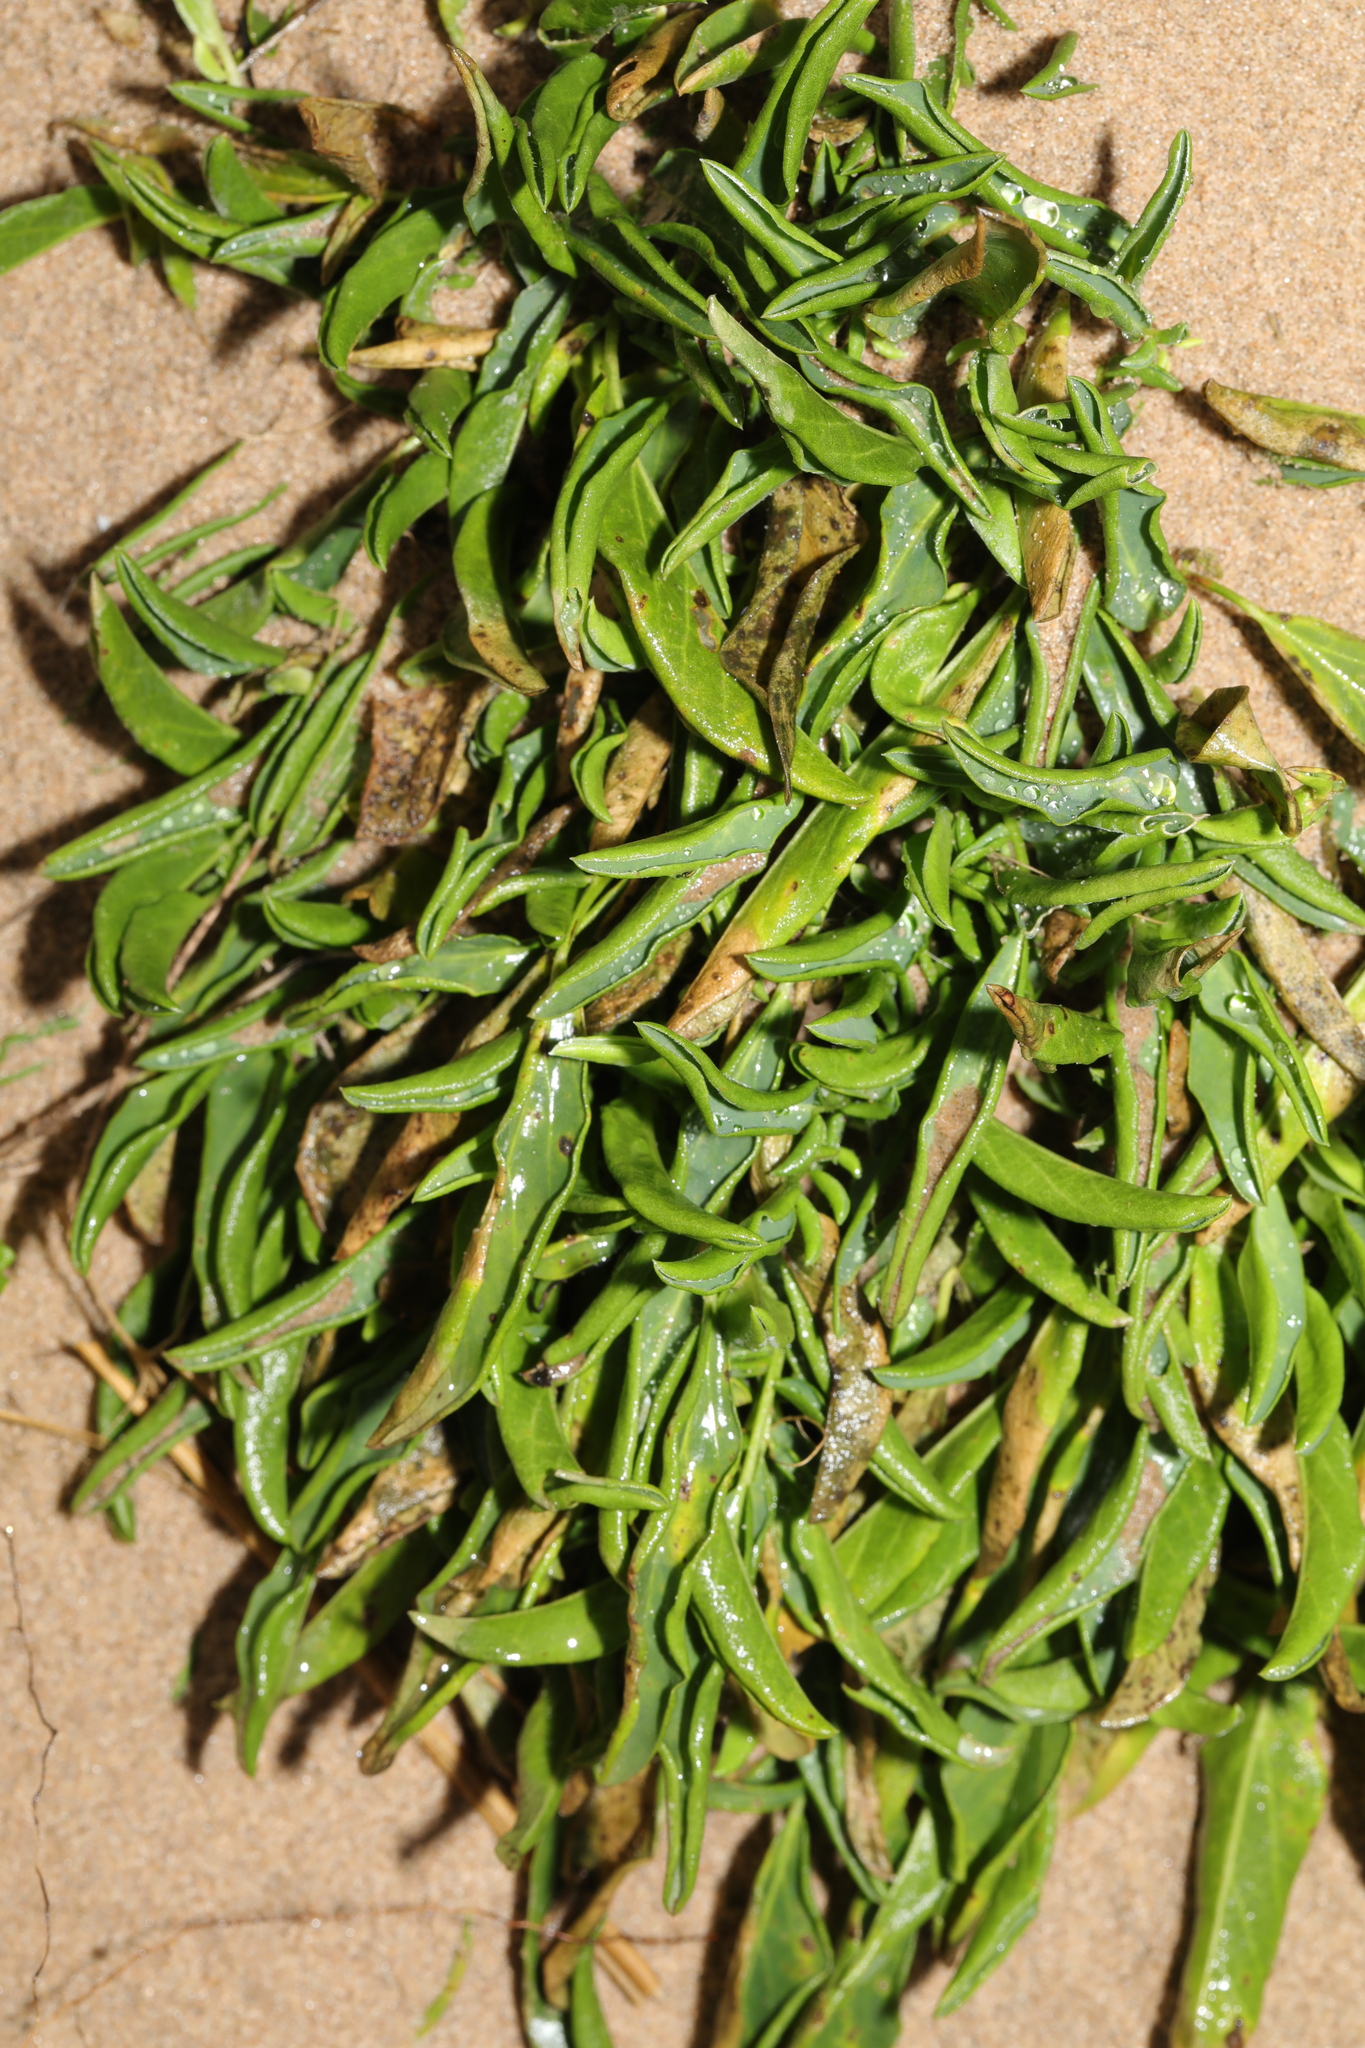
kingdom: Plantae
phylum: Tracheophyta
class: Magnoliopsida
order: Asterales
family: Asteraceae
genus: Tripolium
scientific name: Tripolium pannonicum
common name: Sea aster
